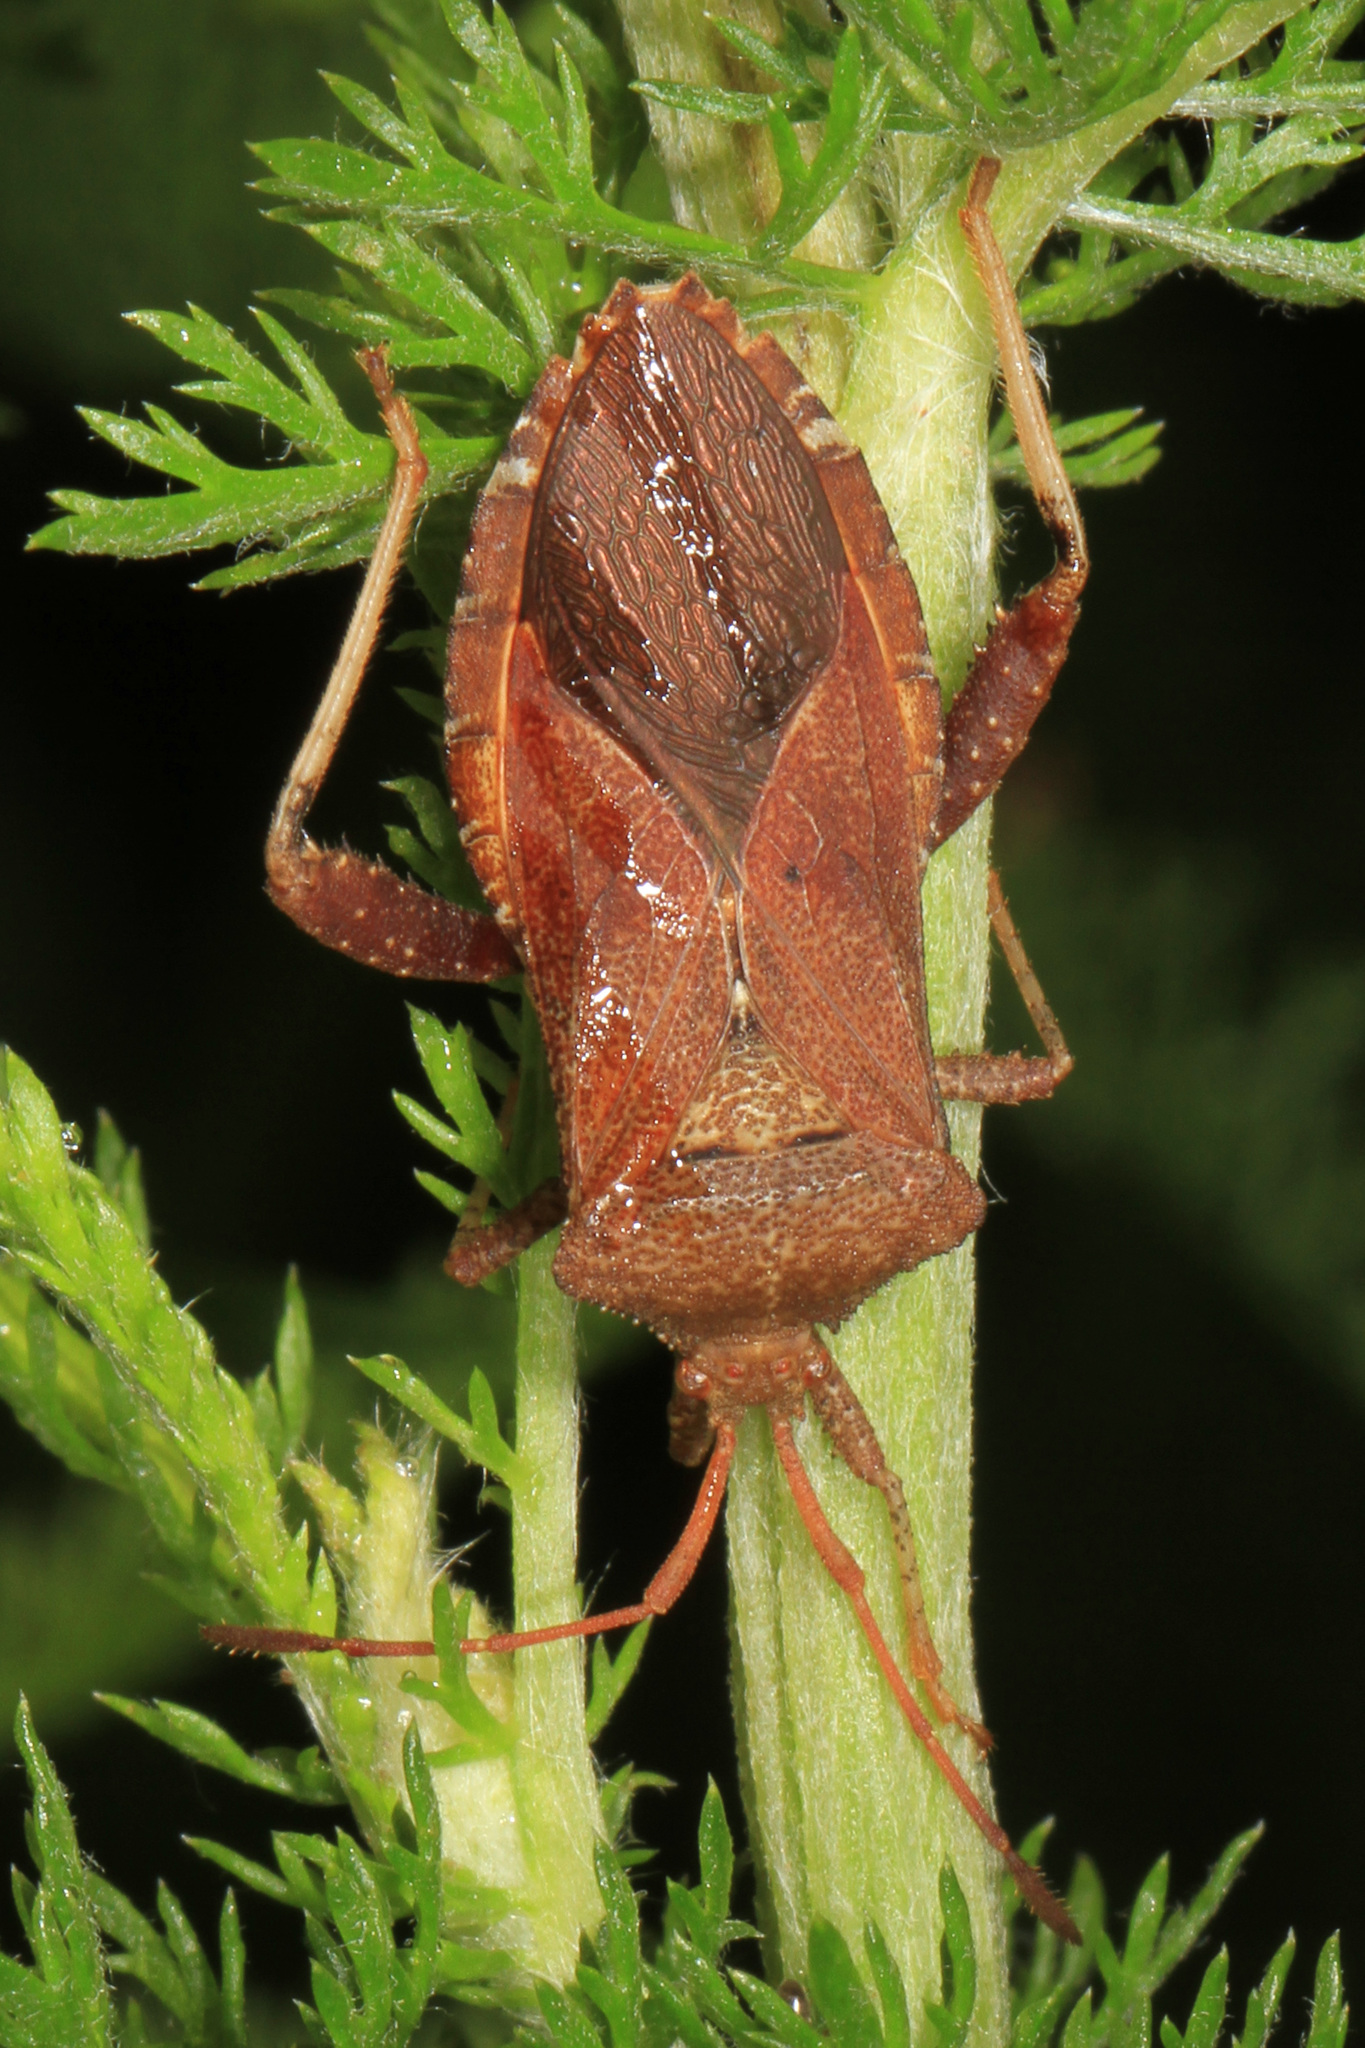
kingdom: Animalia
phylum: Arthropoda
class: Insecta
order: Hemiptera
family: Coreidae
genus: Euthochtha
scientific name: Euthochtha galeator
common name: Helmeted squash bug
